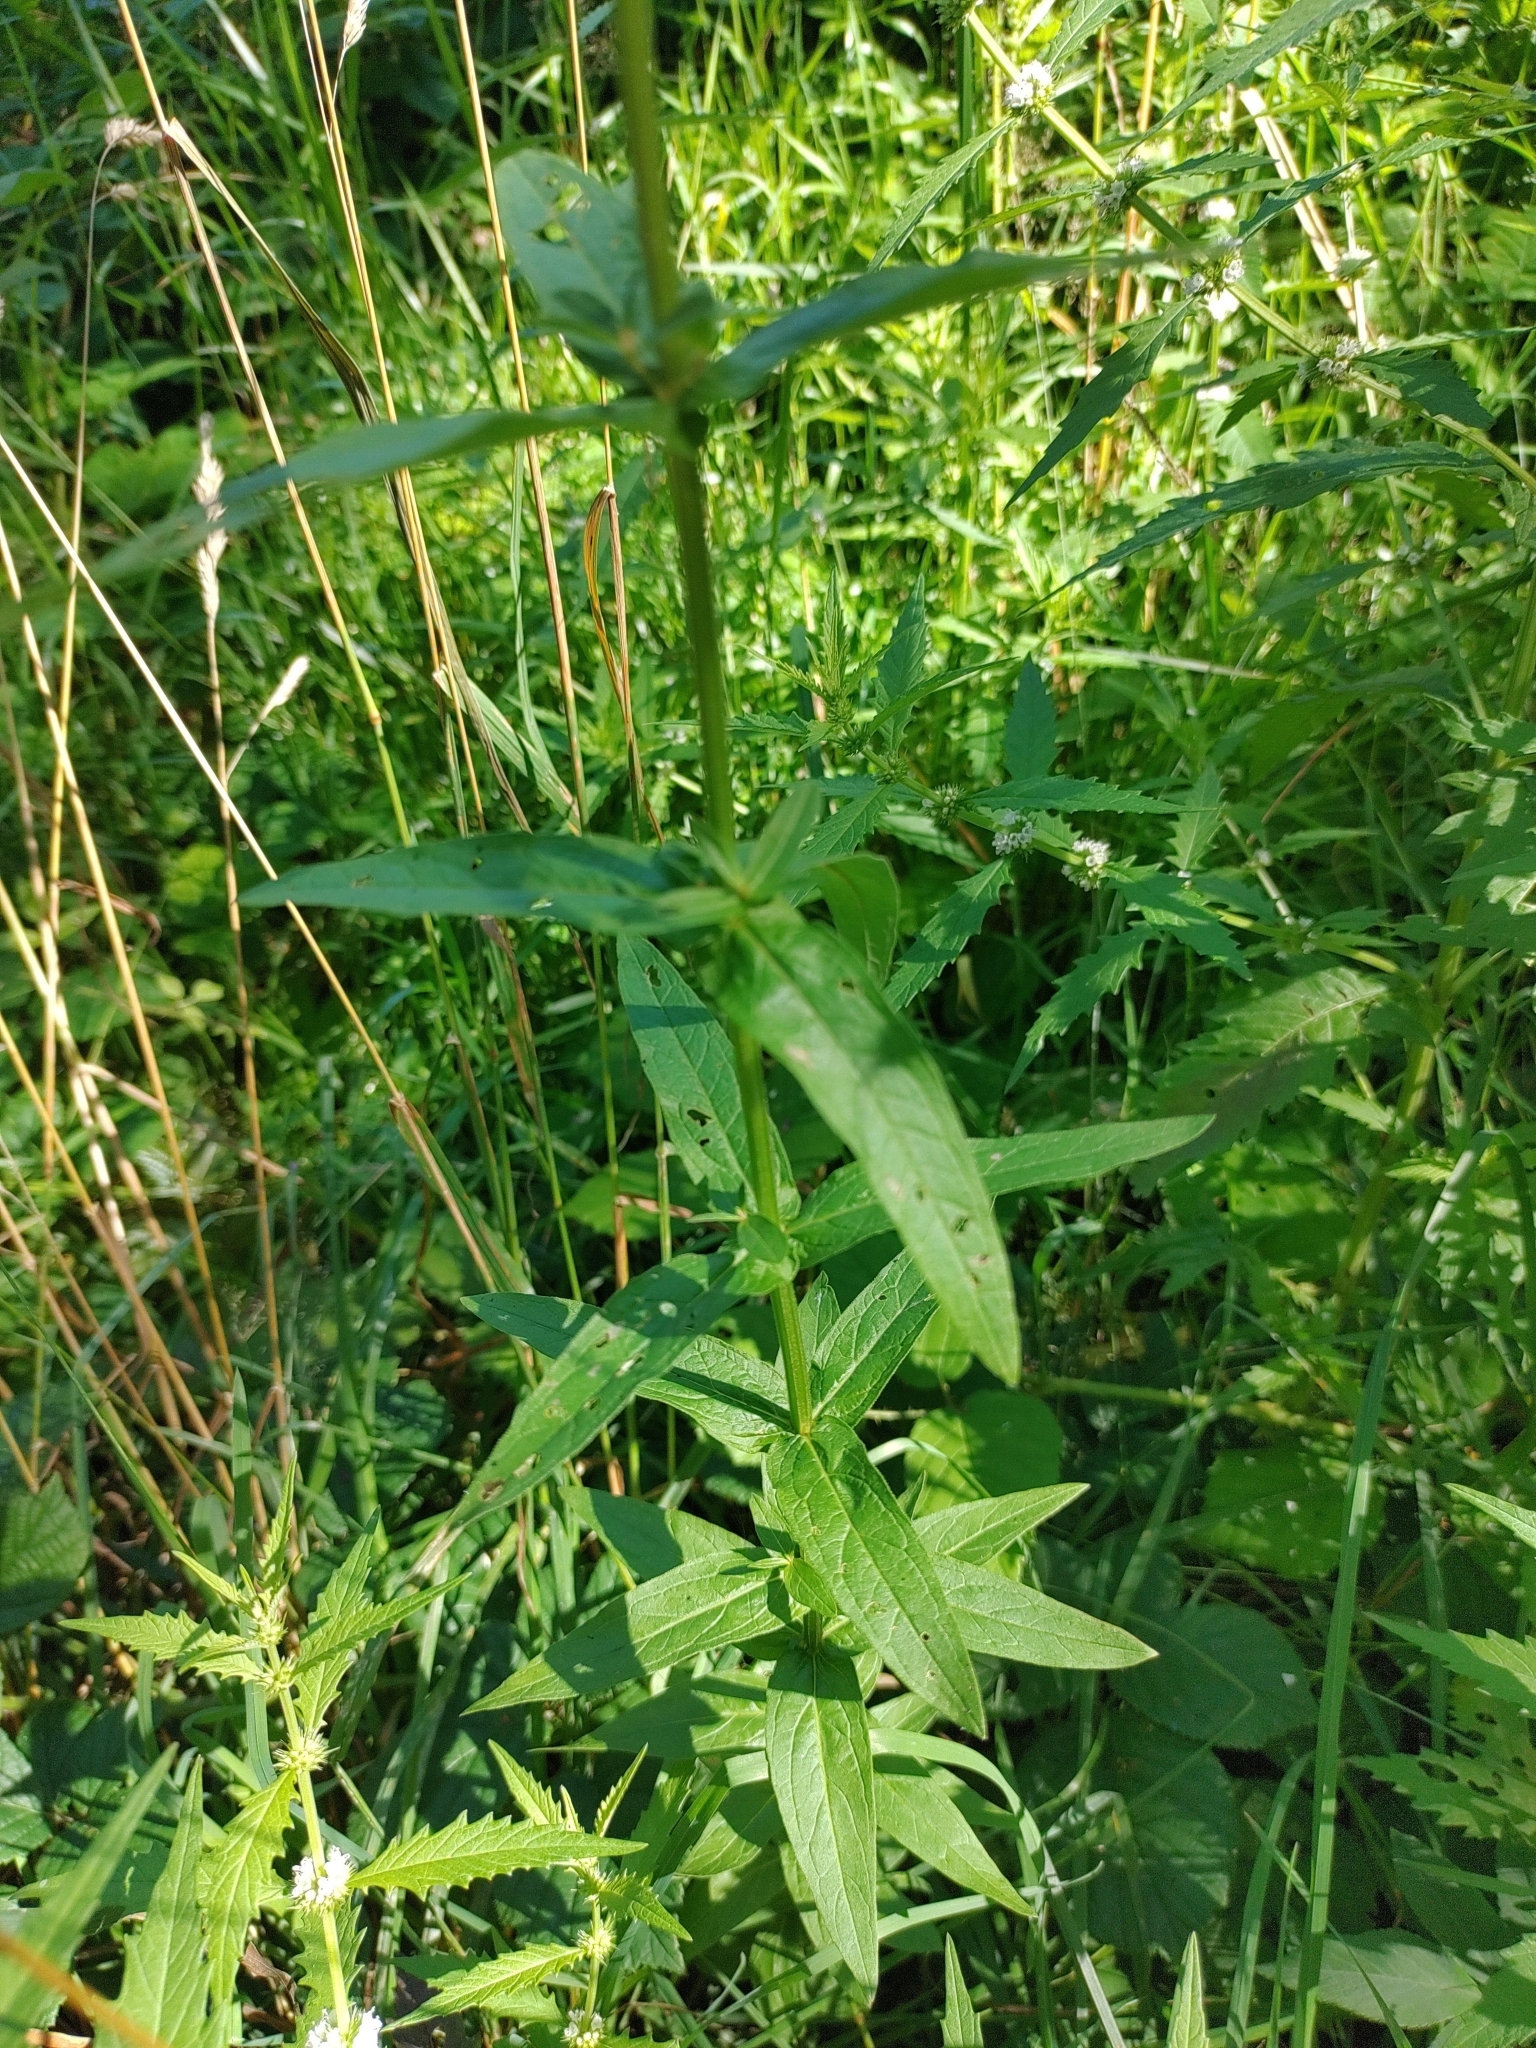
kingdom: Plantae
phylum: Tracheophyta
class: Magnoliopsida
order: Myrtales
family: Lythraceae
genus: Lythrum
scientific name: Lythrum salicaria
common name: Purple loosestrife
